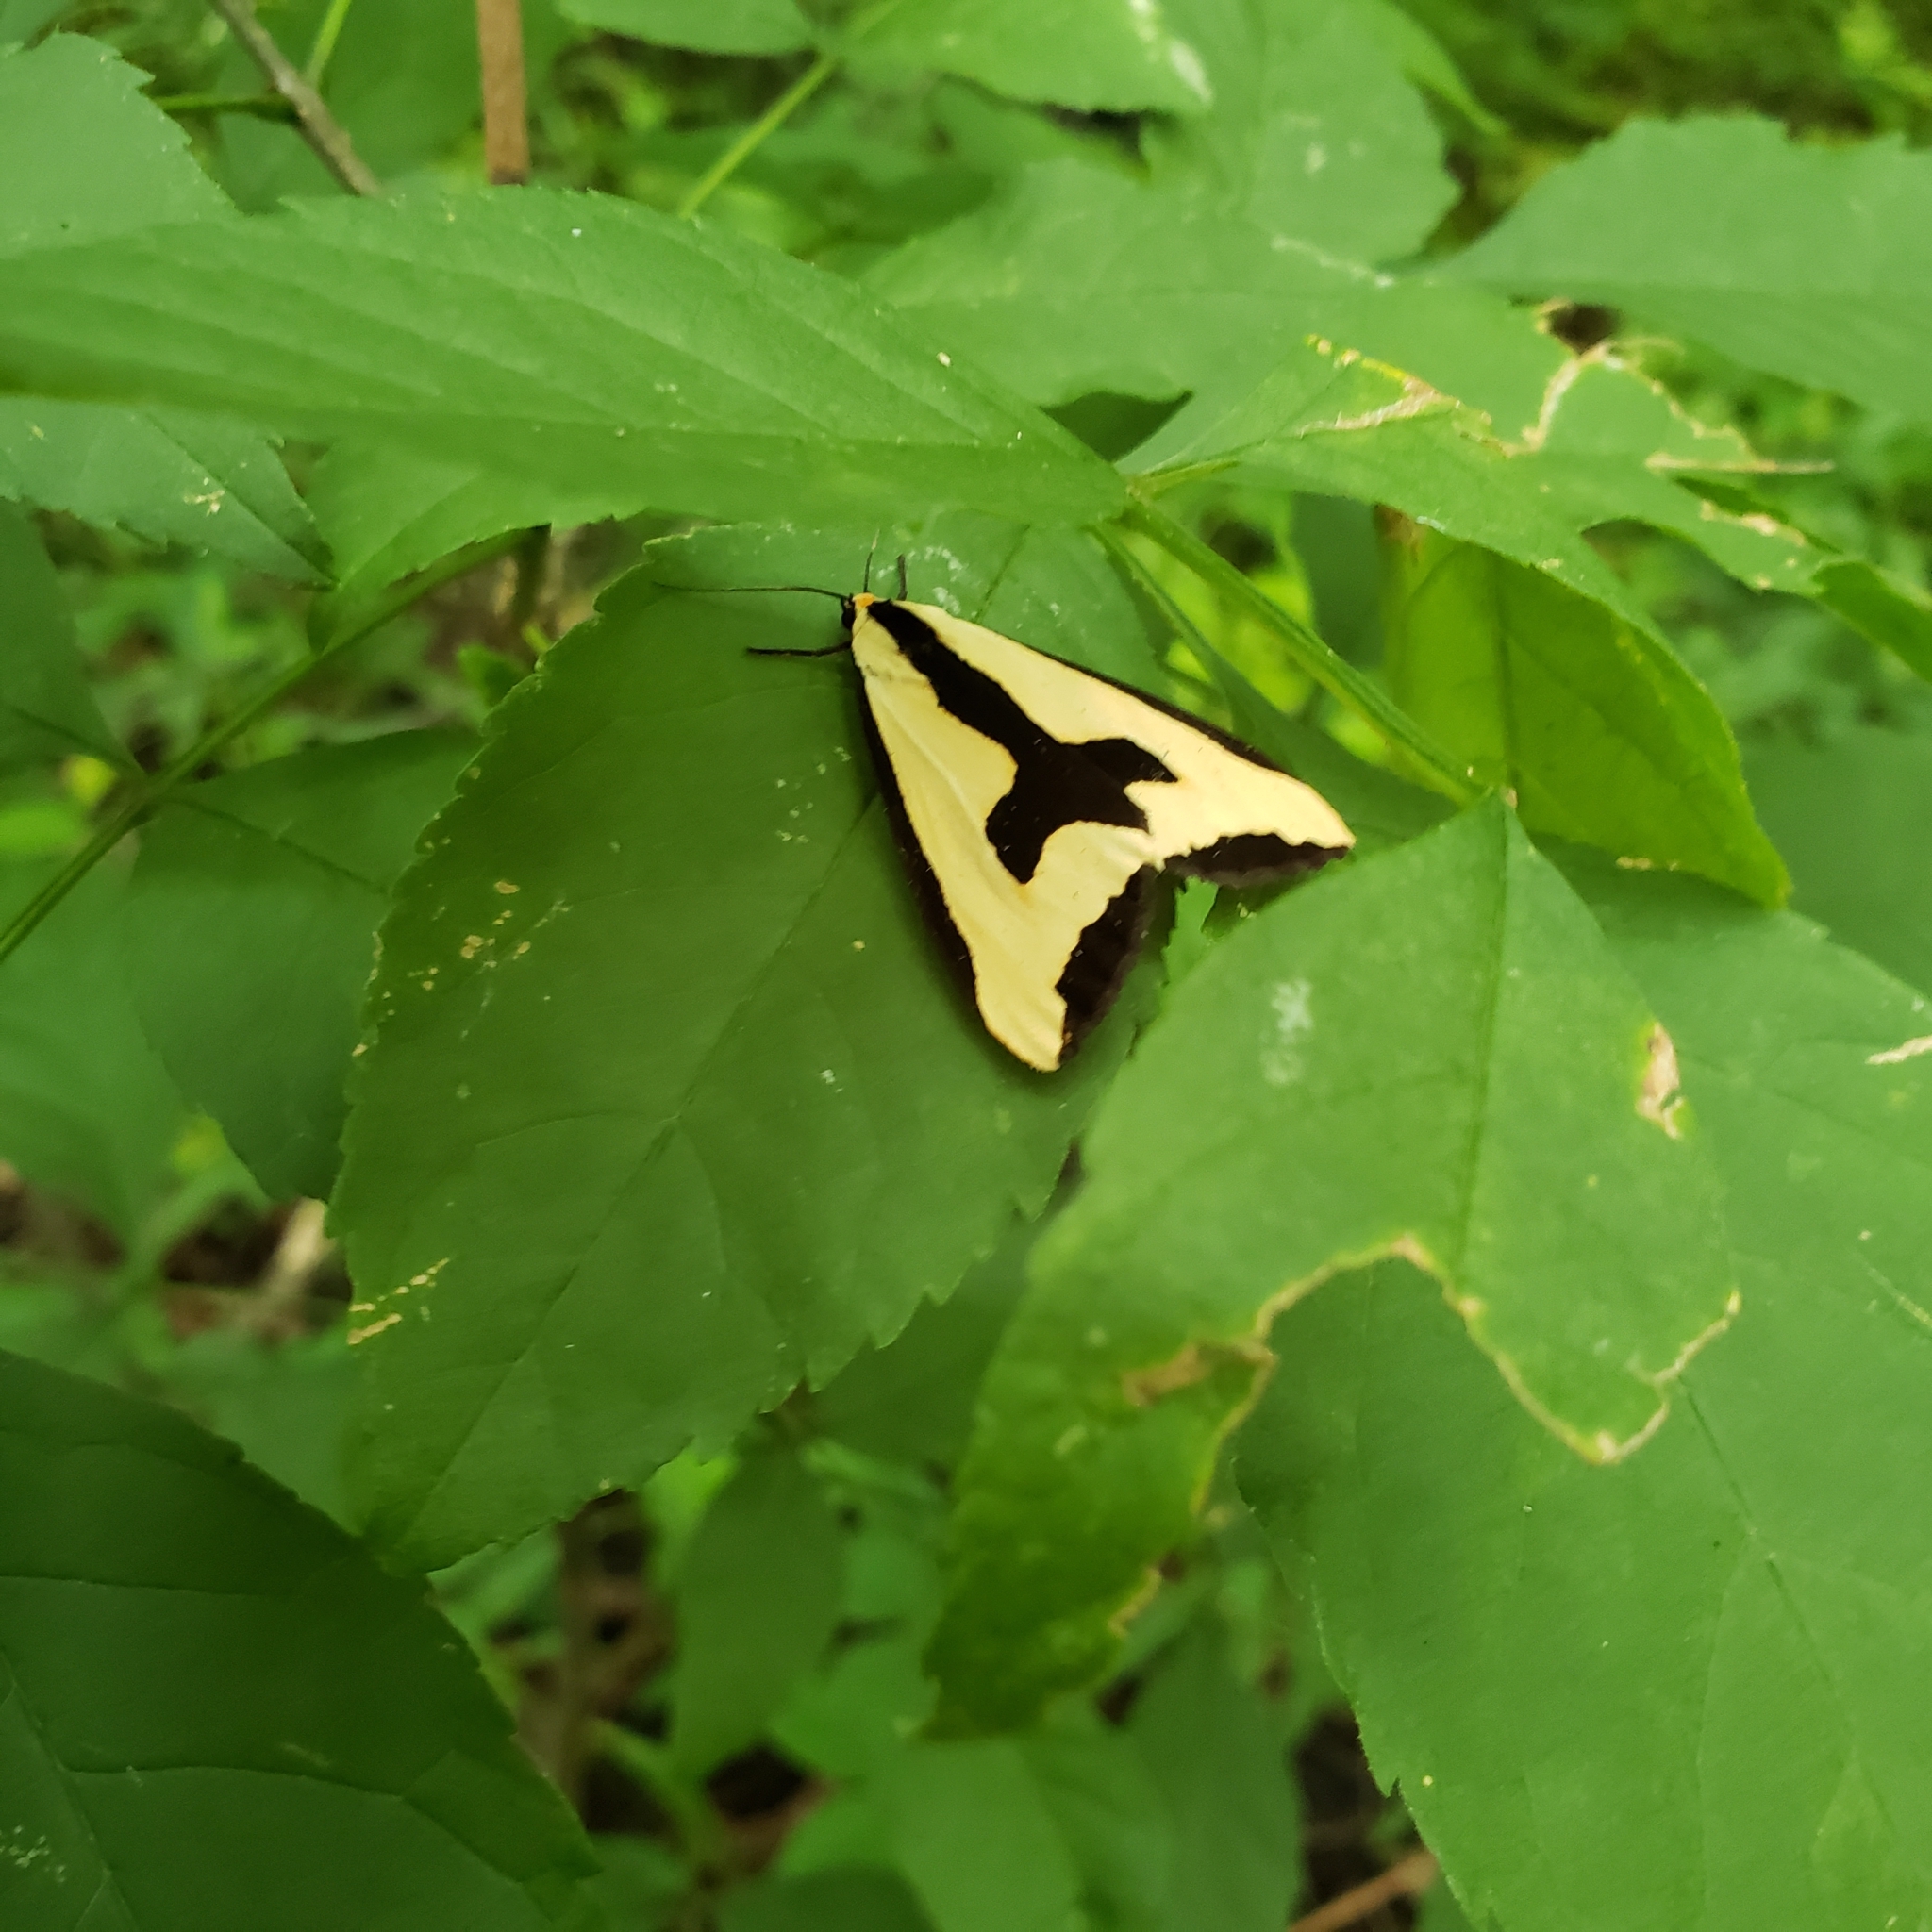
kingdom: Animalia
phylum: Arthropoda
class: Insecta
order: Lepidoptera
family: Erebidae
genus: Haploa
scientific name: Haploa clymene
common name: Clymene moth
